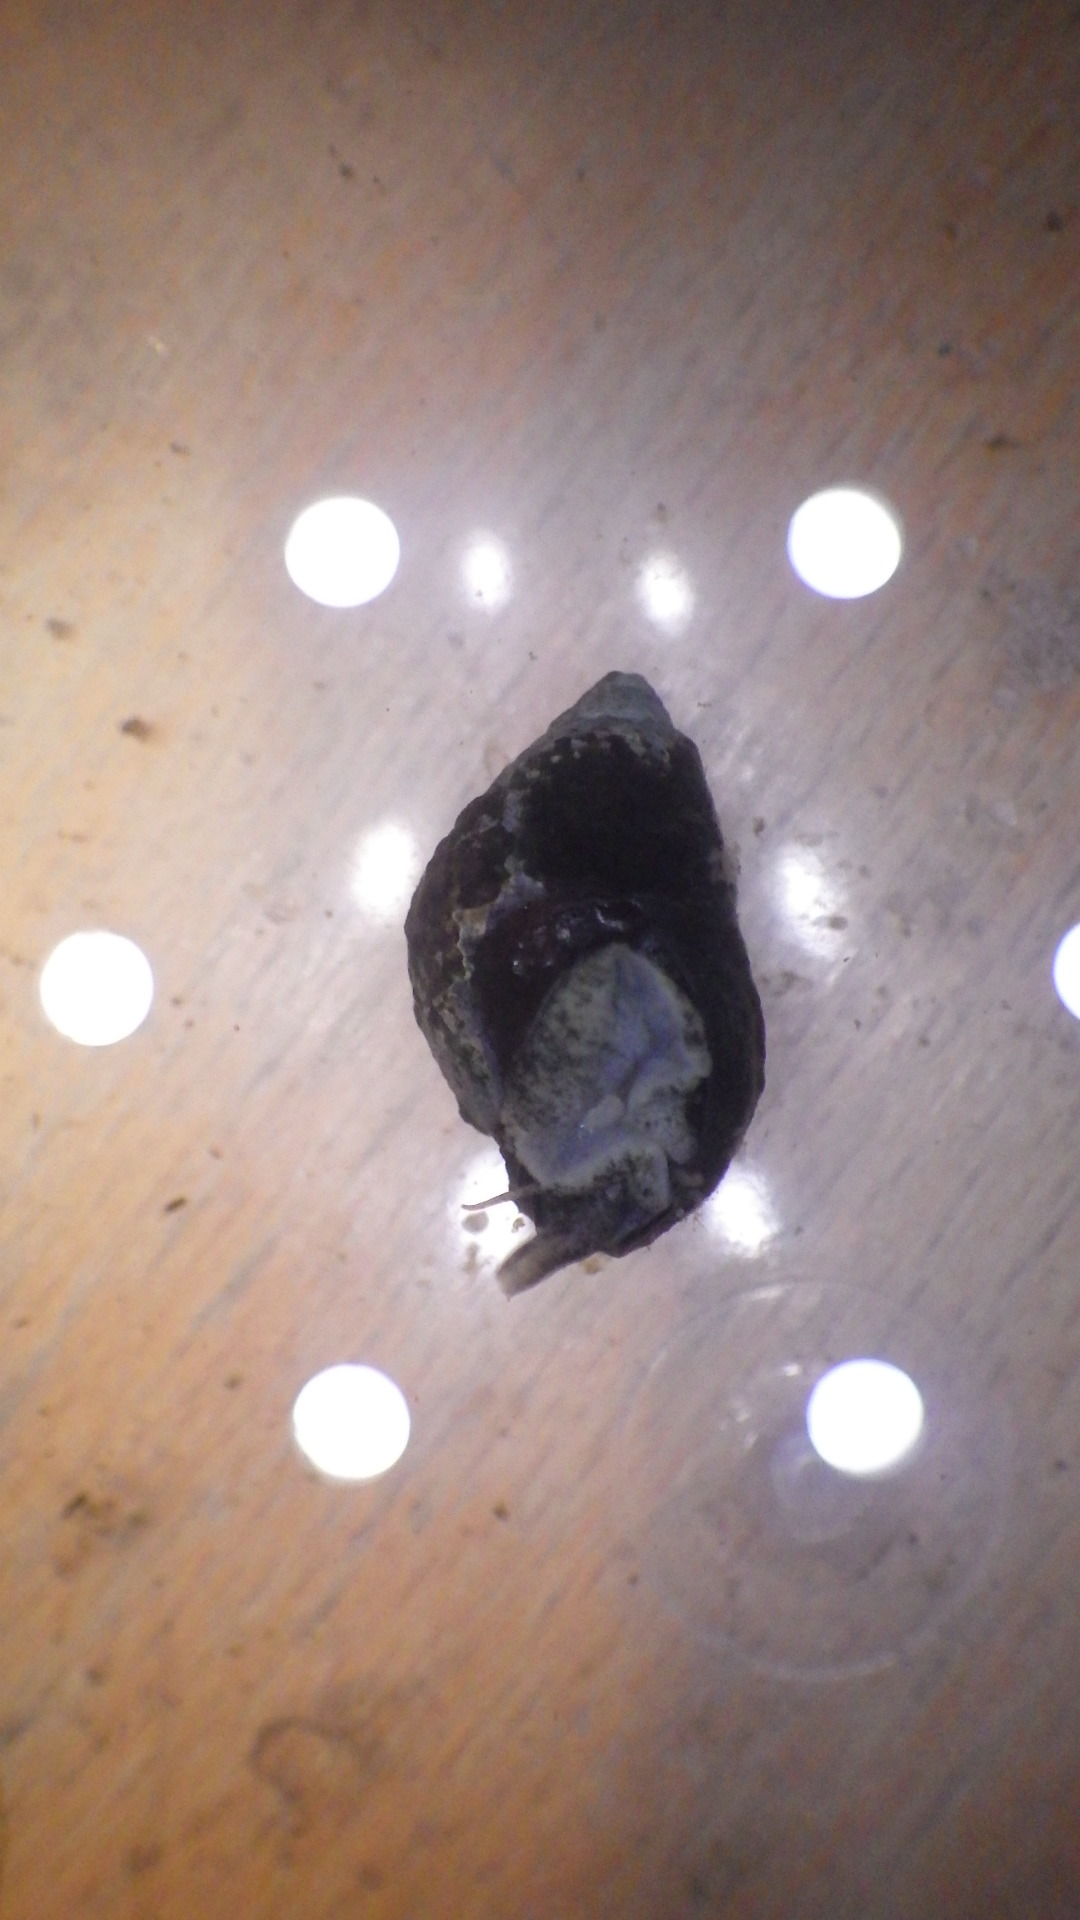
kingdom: Animalia
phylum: Mollusca
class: Gastropoda
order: Neogastropoda
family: Nassariidae
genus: Ilyanassa
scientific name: Ilyanassa obsoleta
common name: Eastern mudsnail
